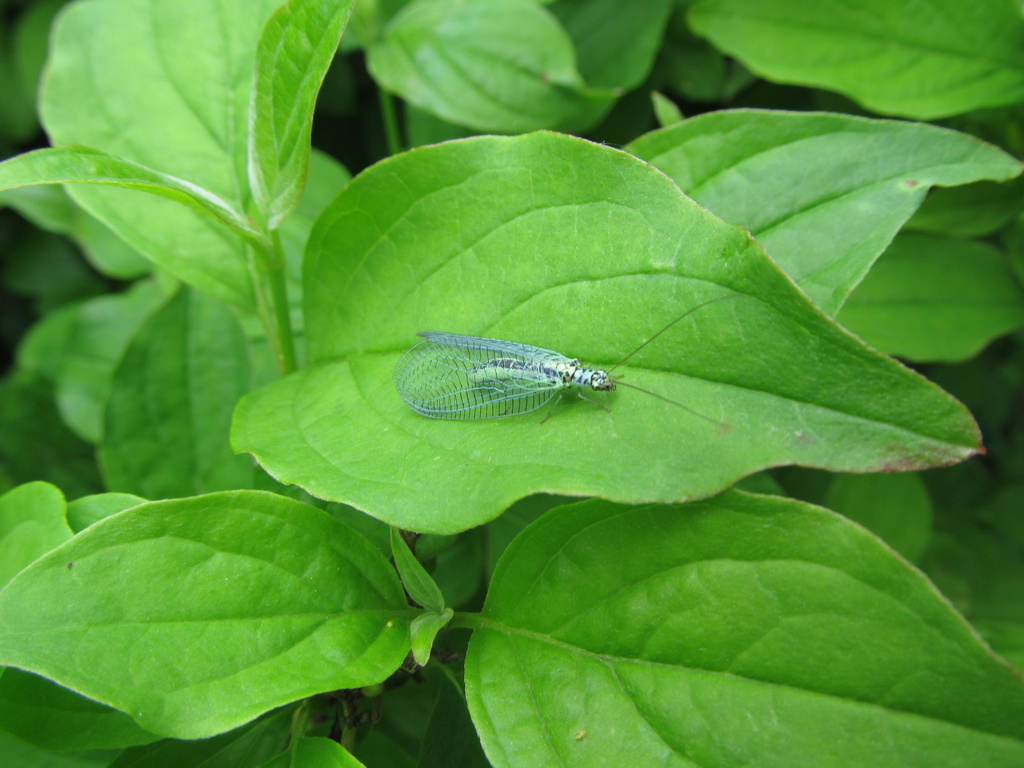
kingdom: Animalia
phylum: Arthropoda
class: Insecta
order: Neuroptera
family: Chrysopidae
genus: Chrysopa
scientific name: Chrysopa perla
